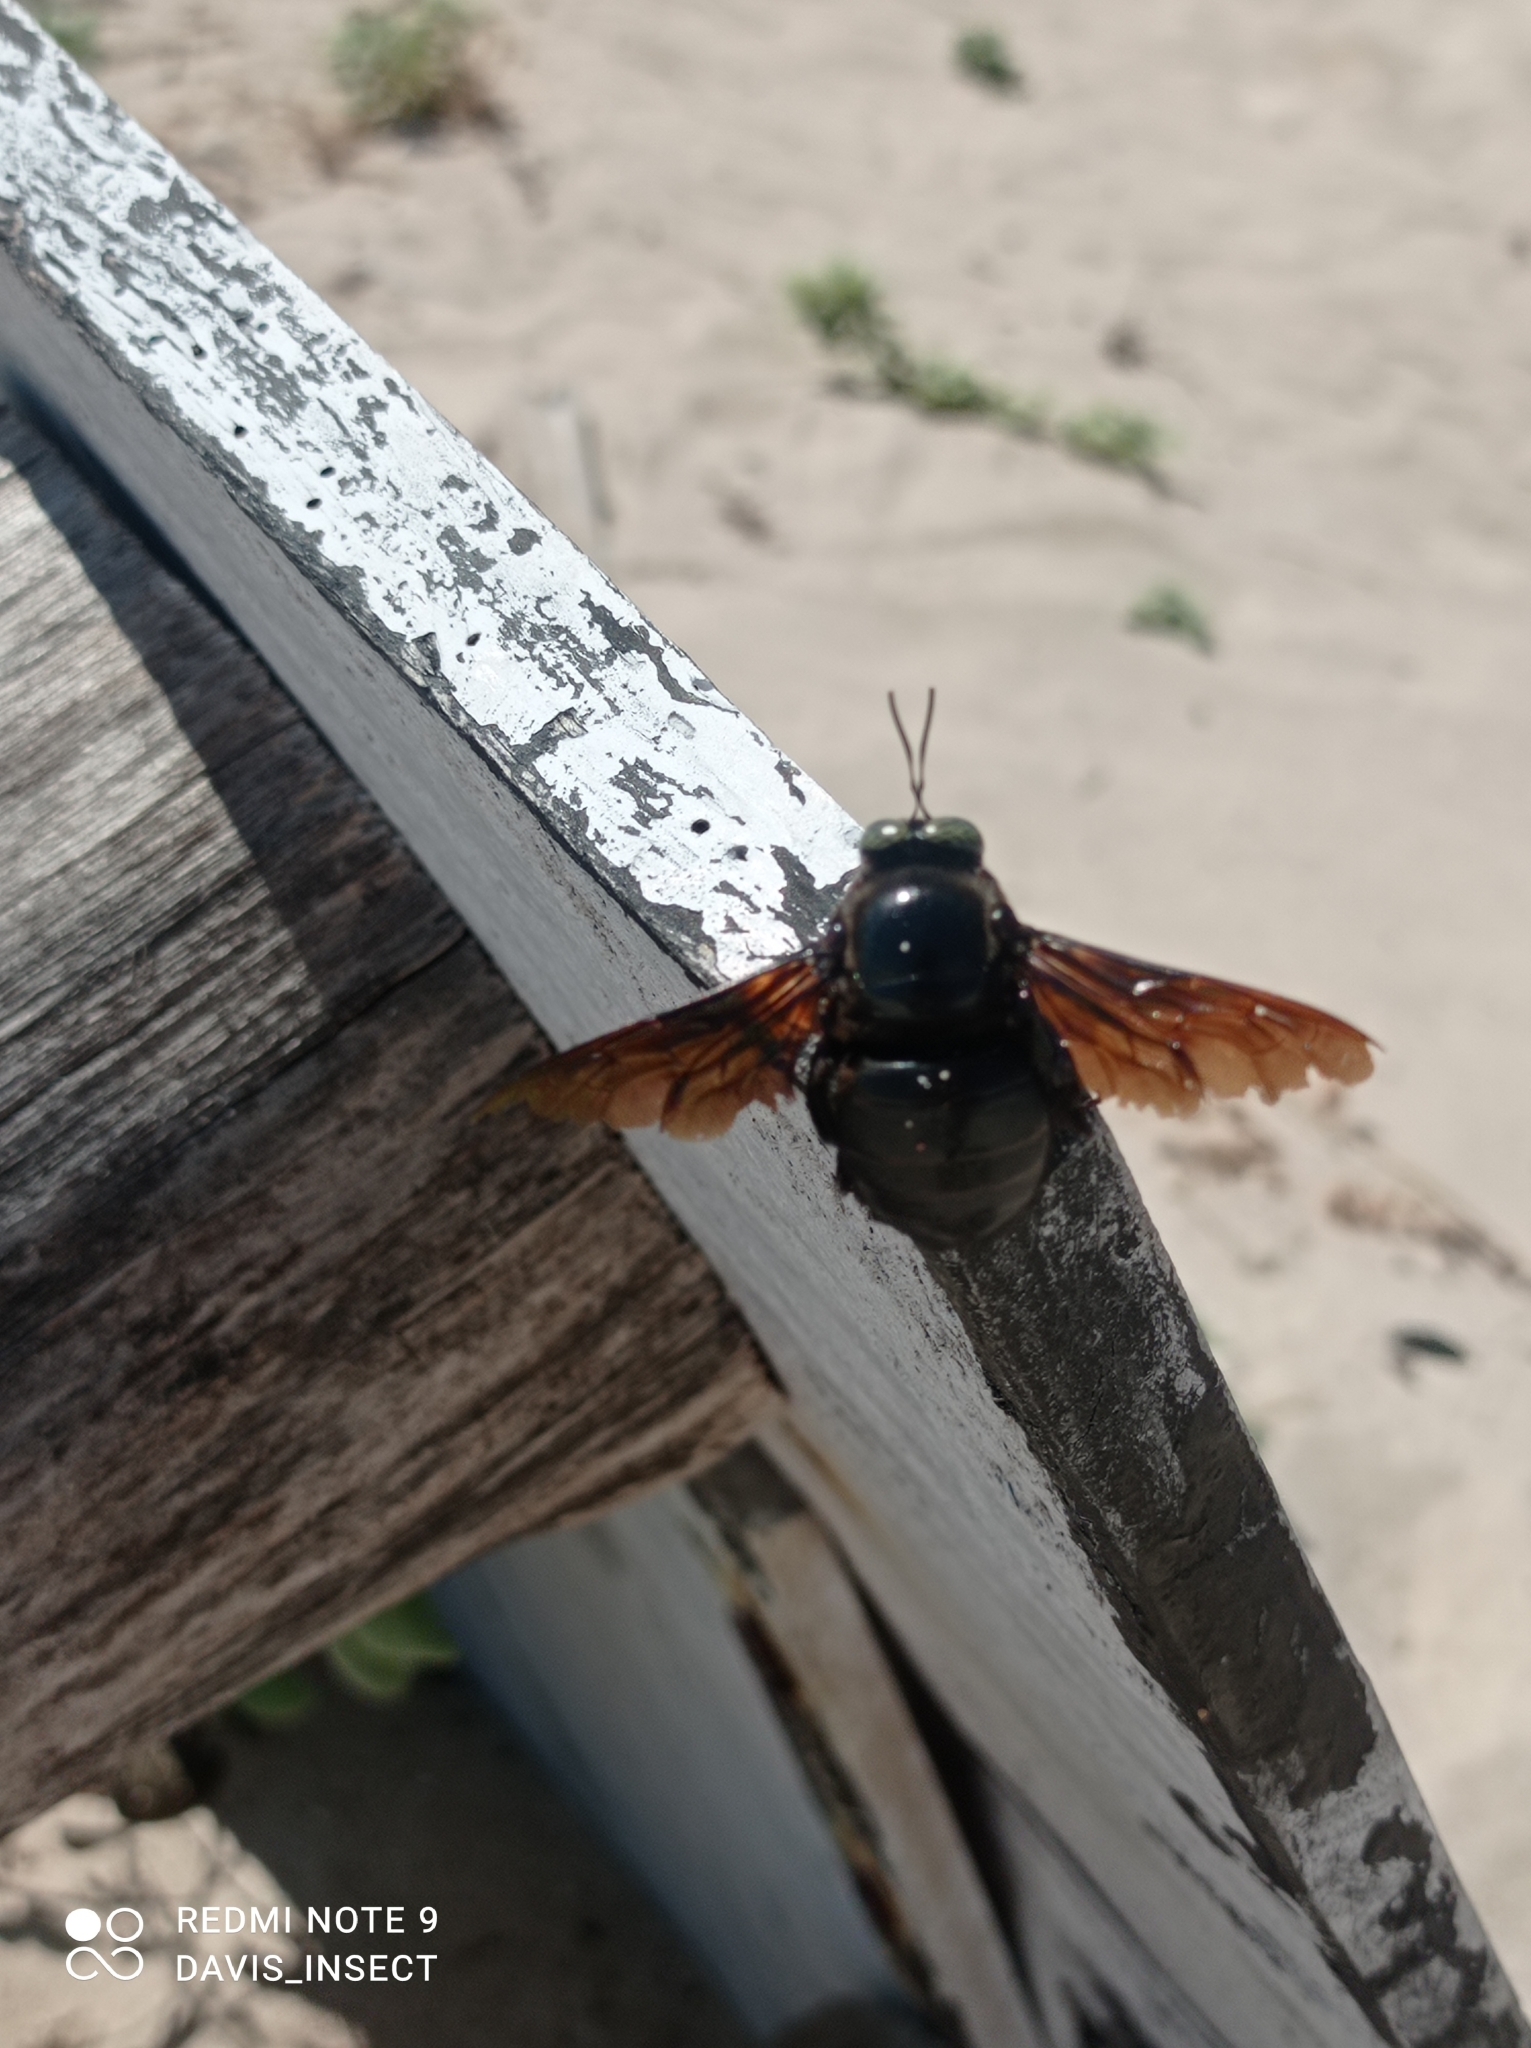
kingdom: Animalia
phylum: Arthropoda
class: Insecta
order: Hymenoptera
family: Apidae
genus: Xylocopa
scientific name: Xylocopa perforator
